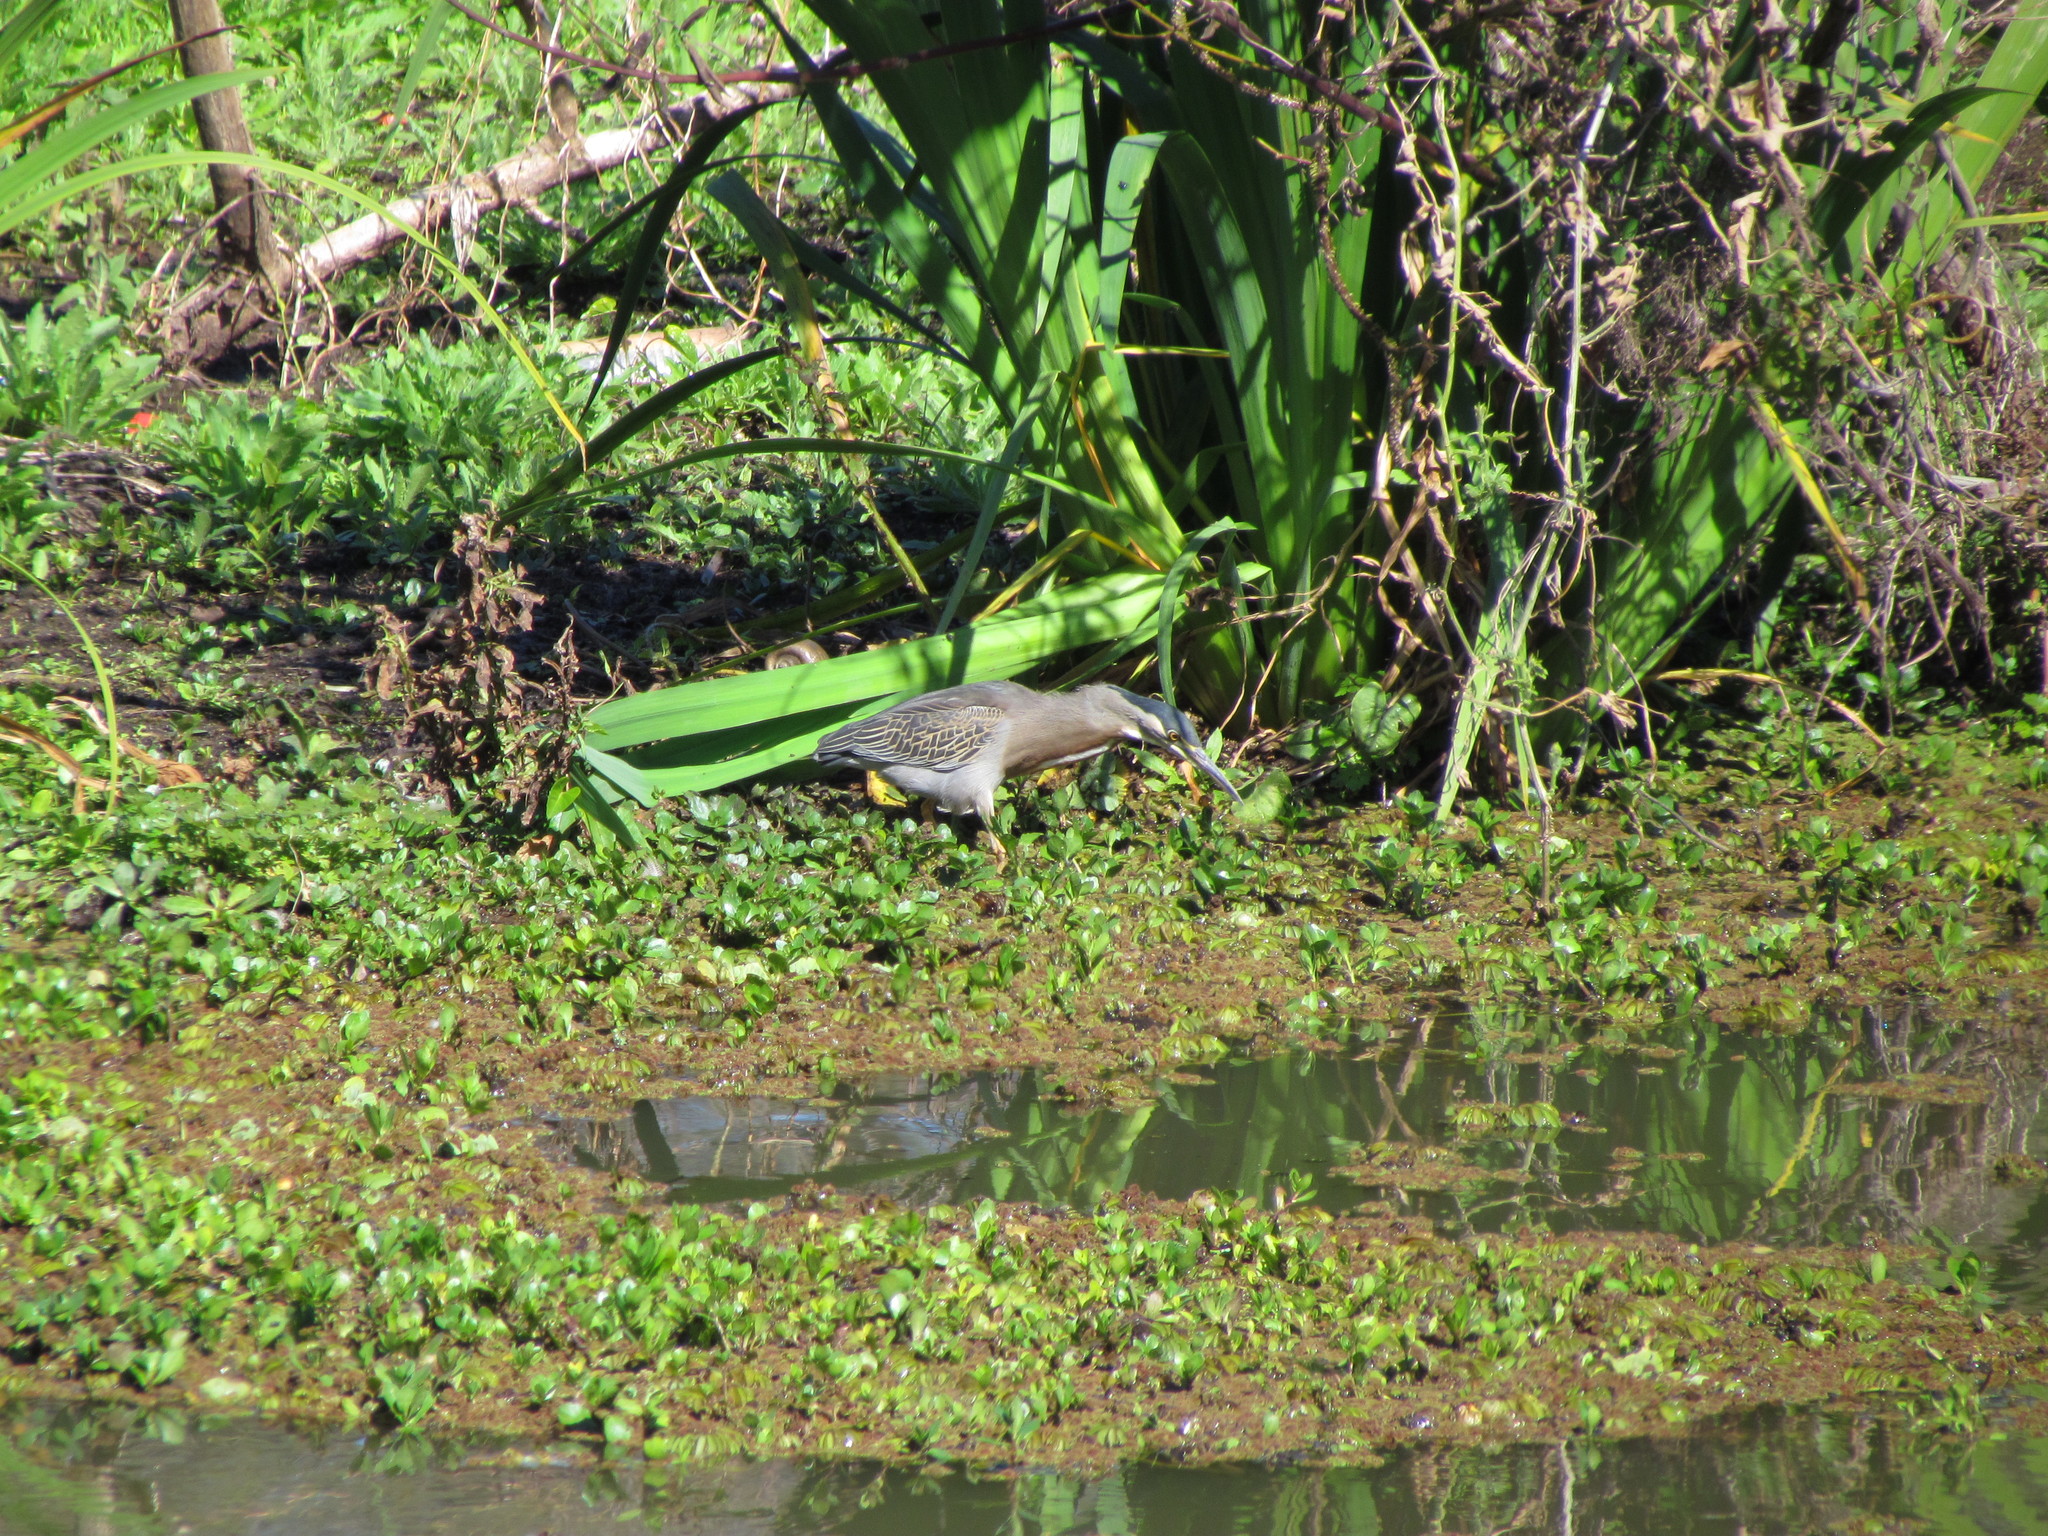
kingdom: Animalia
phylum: Chordata
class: Aves
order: Pelecaniformes
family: Ardeidae
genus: Butorides
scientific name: Butorides striata
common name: Striated heron
